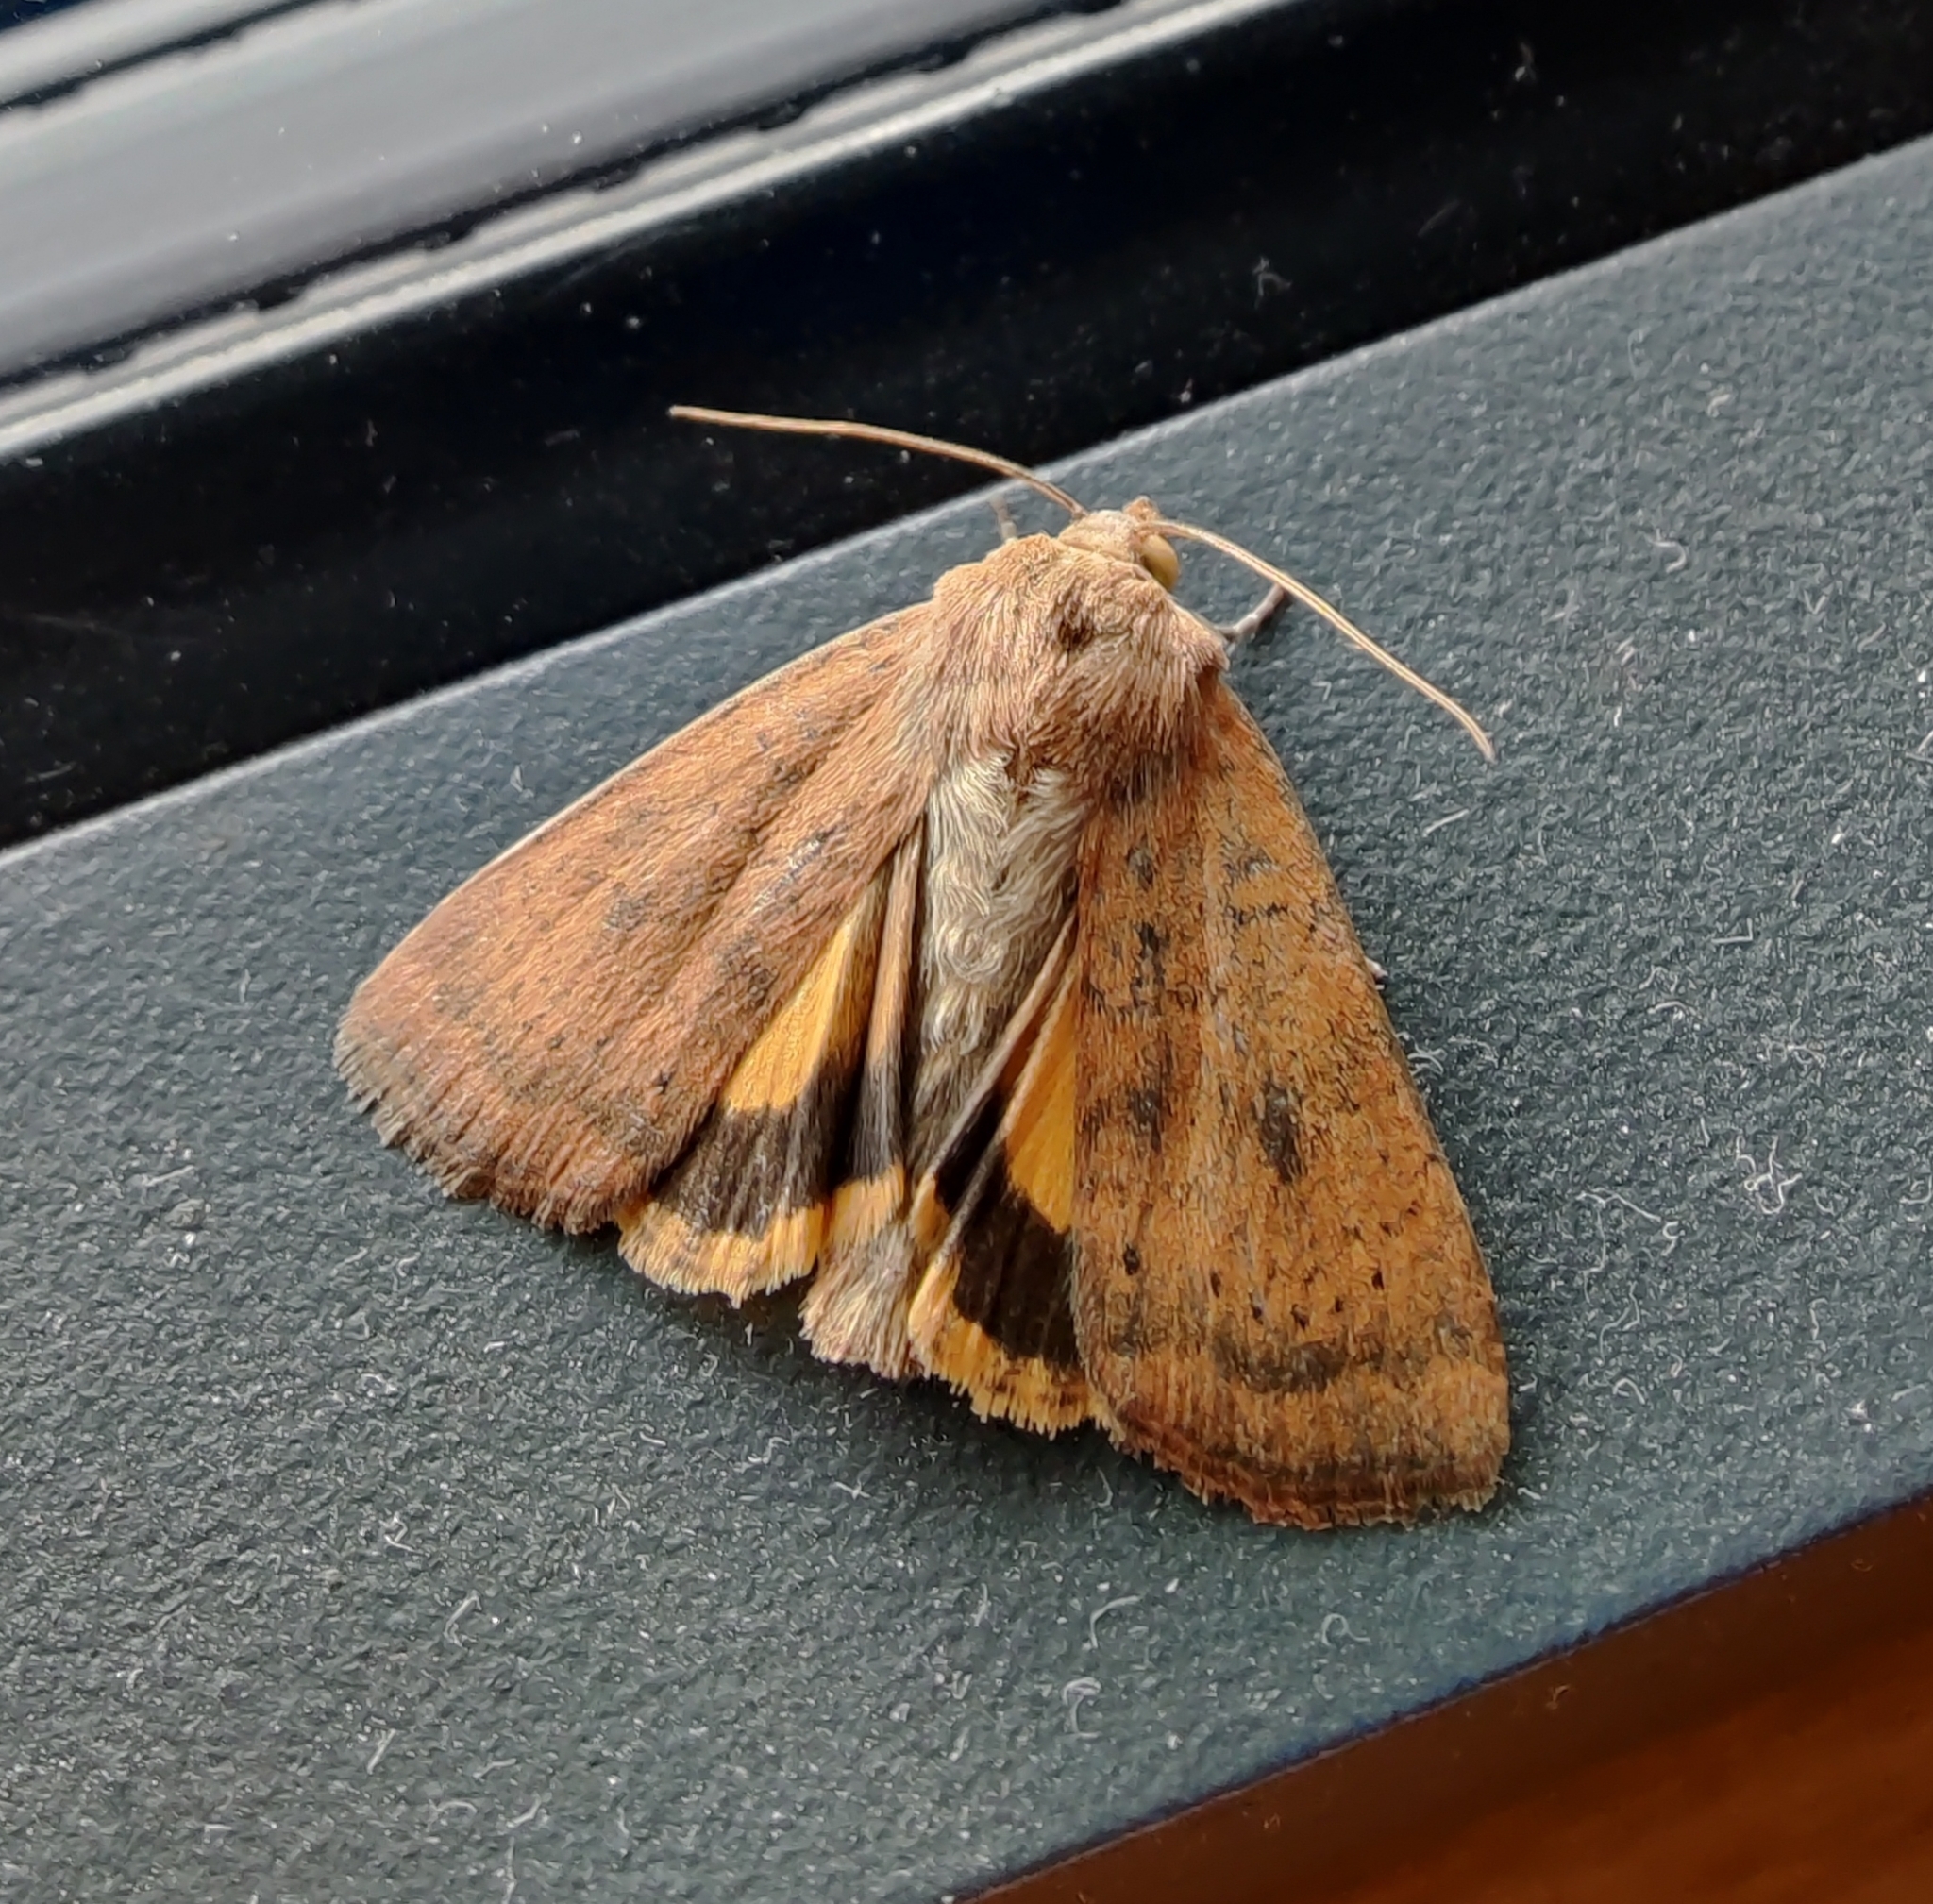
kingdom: Animalia
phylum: Arthropoda
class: Insecta
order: Lepidoptera
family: Noctuidae
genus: Noctua
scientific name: Noctua interjecta
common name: Least yellow underwing
